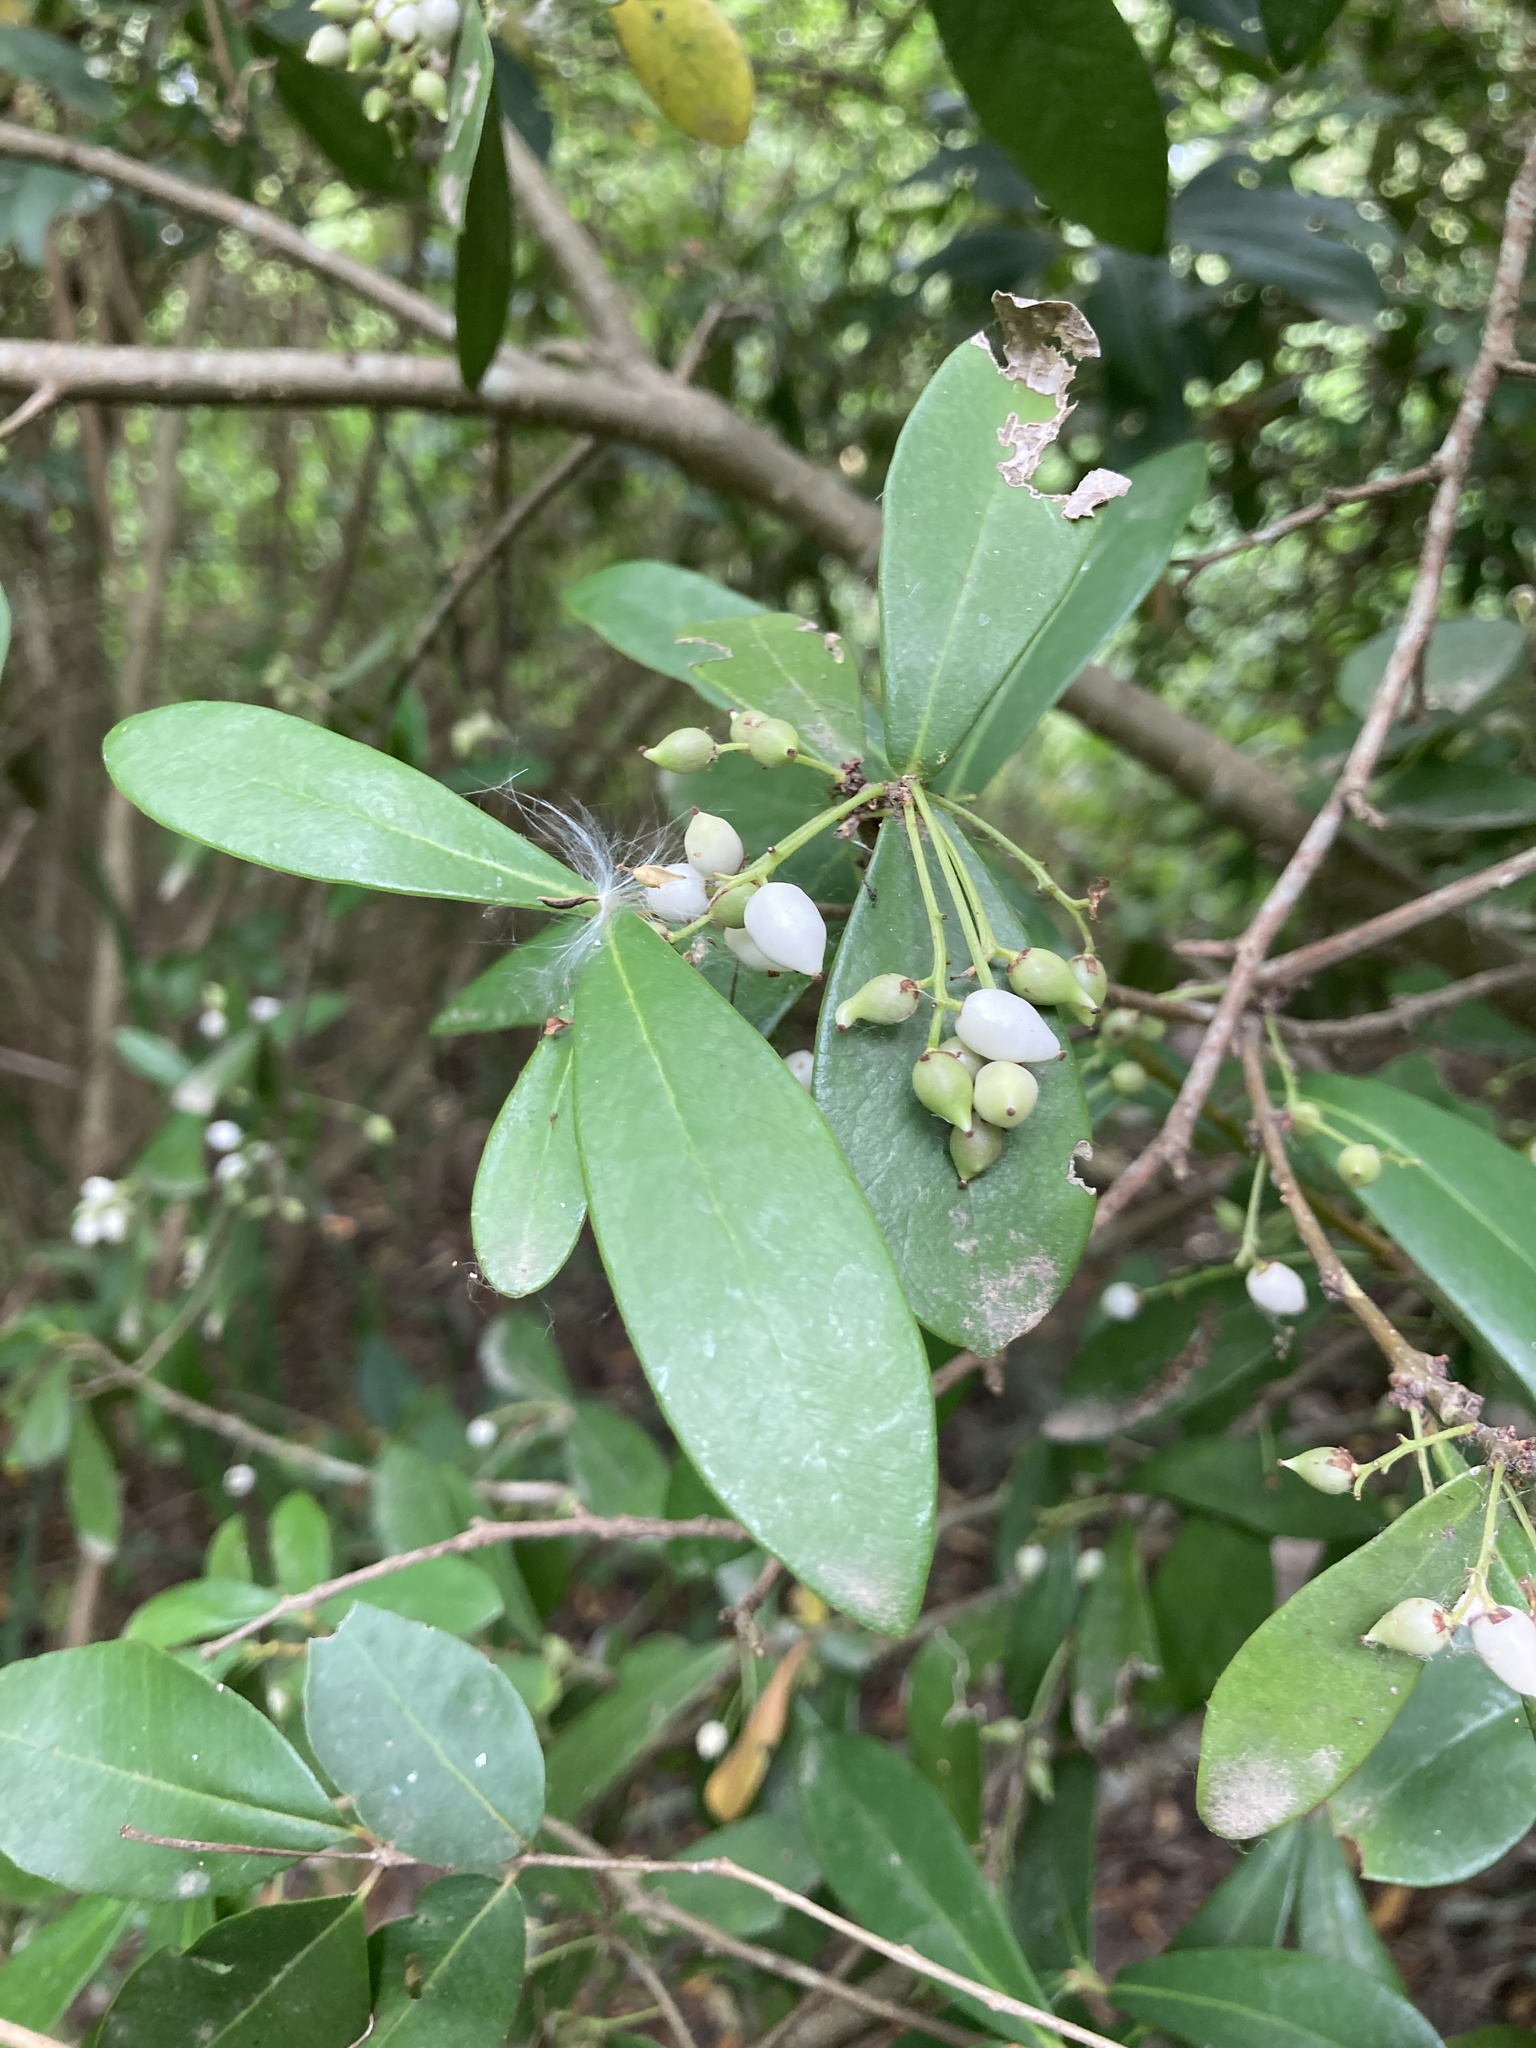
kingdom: Plantae
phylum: Tracheophyta
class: Magnoliopsida
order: Malvales
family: Thymelaeaceae
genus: Daphnopsis
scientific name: Daphnopsis racemosa
